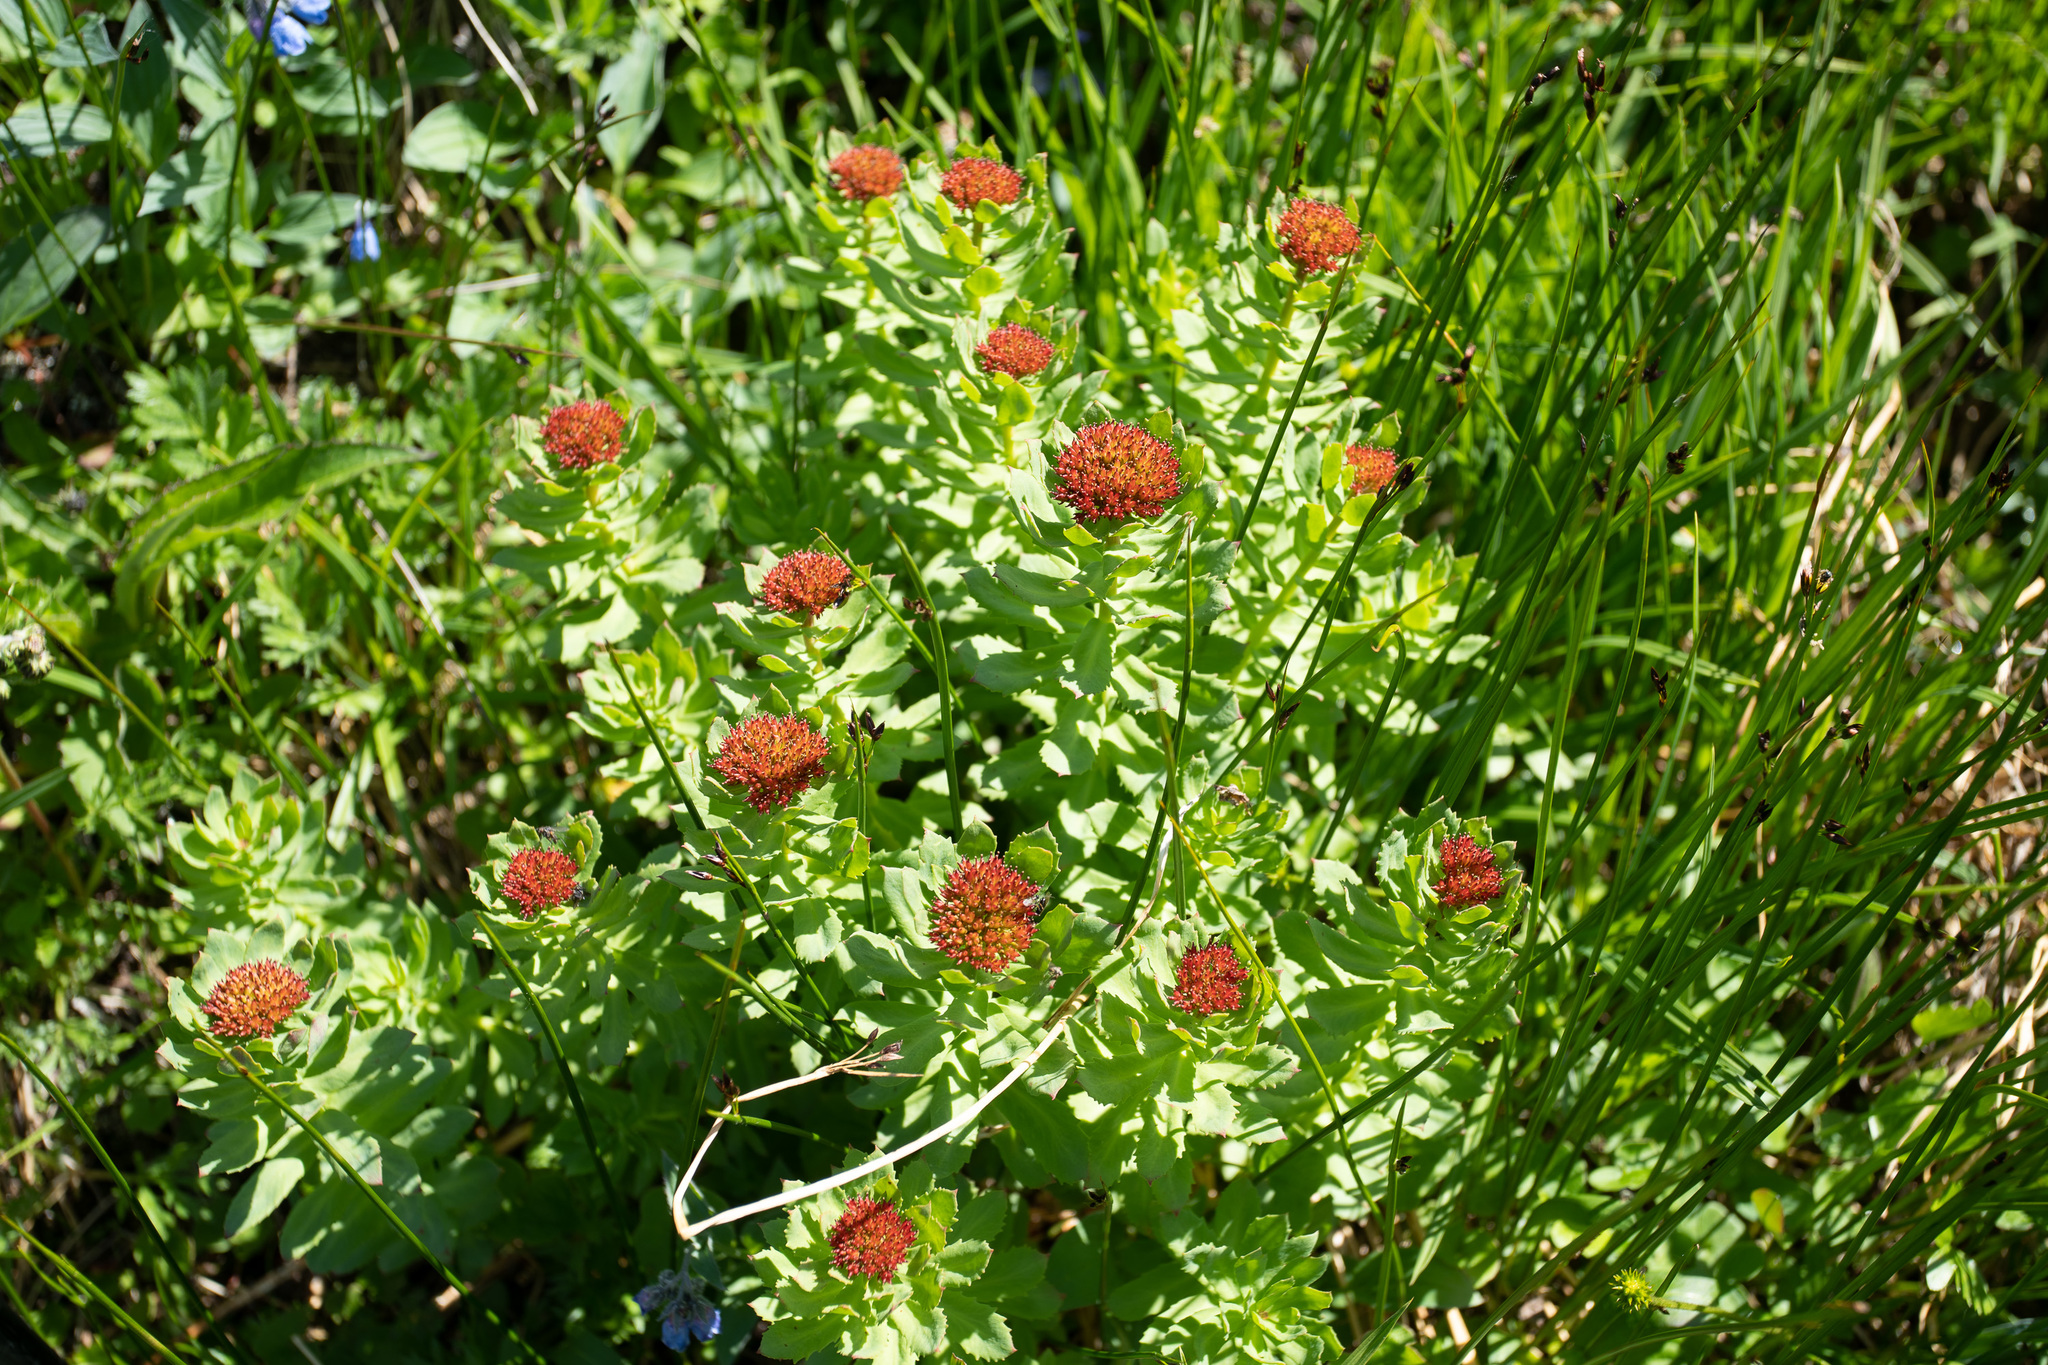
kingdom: Plantae
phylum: Tracheophyta
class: Magnoliopsida
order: Saxifragales
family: Crassulaceae
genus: Rhodiola
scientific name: Rhodiola rosea
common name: Roseroot
